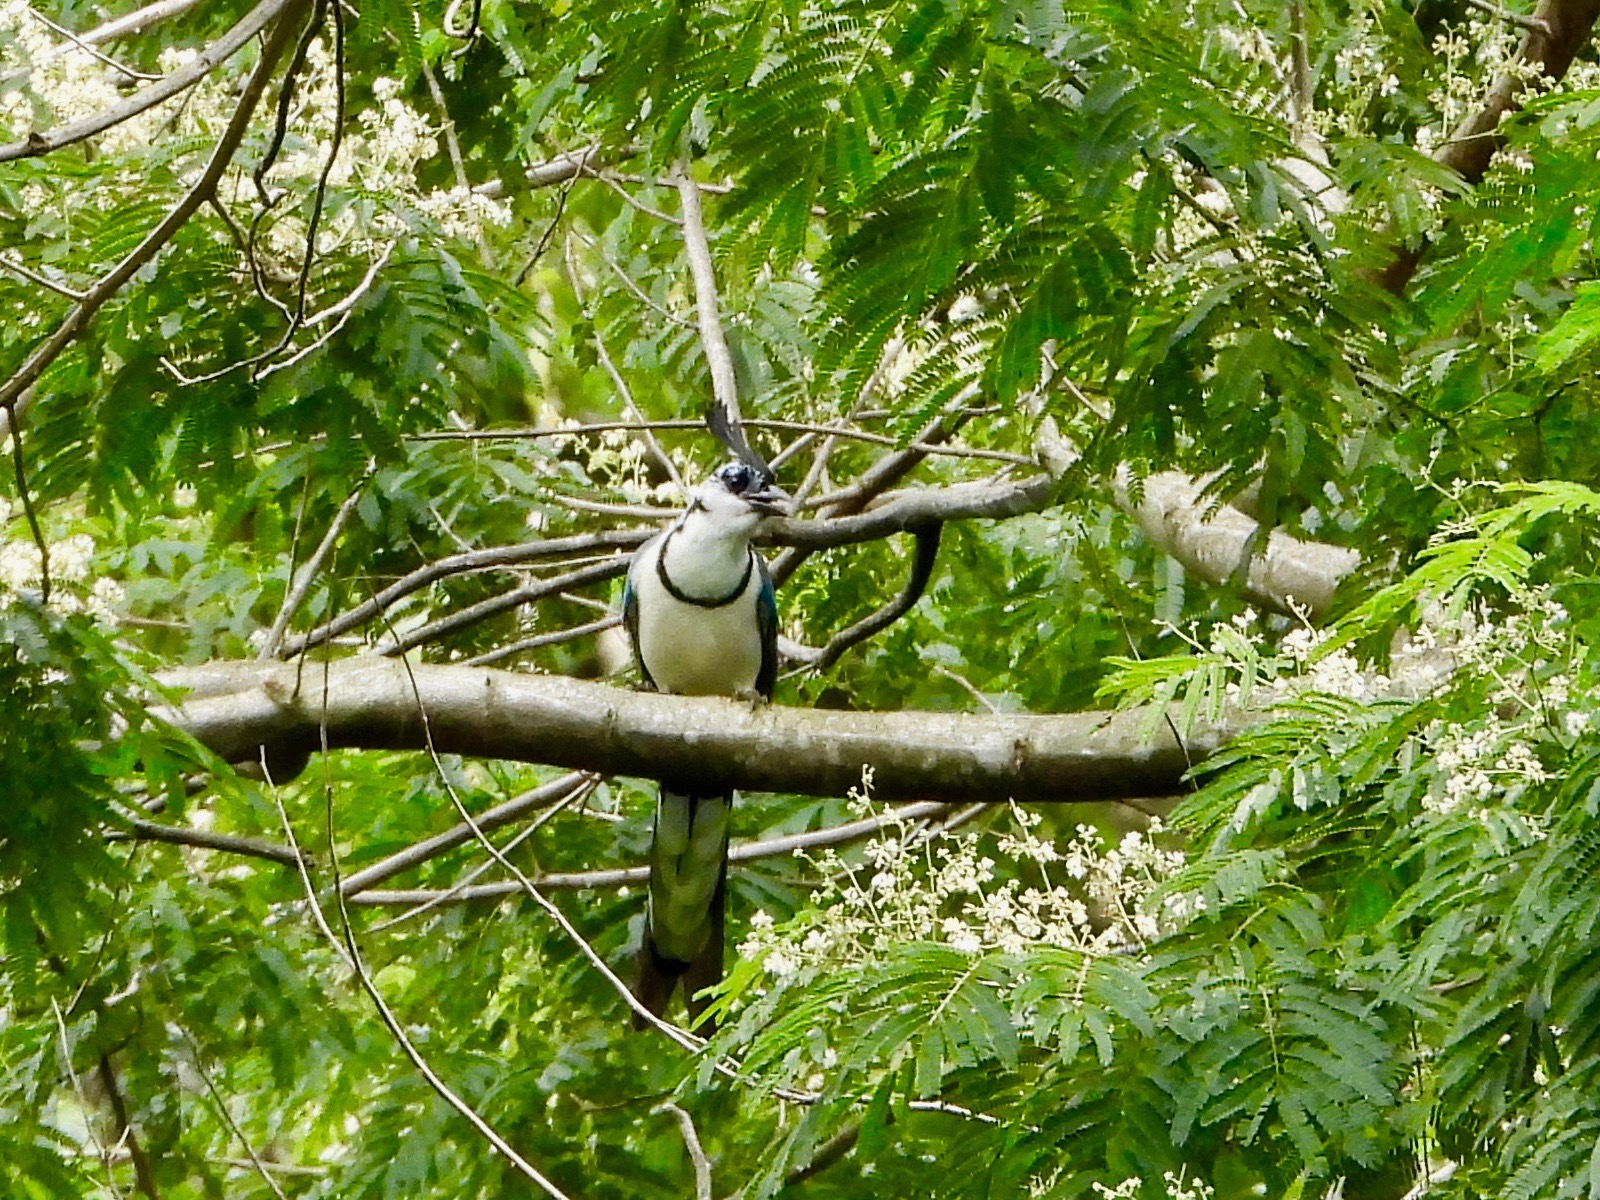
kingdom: Animalia
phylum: Chordata
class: Aves
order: Passeriformes
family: Corvidae
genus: Calocitta
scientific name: Calocitta formosa
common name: White-throated magpie-jay
